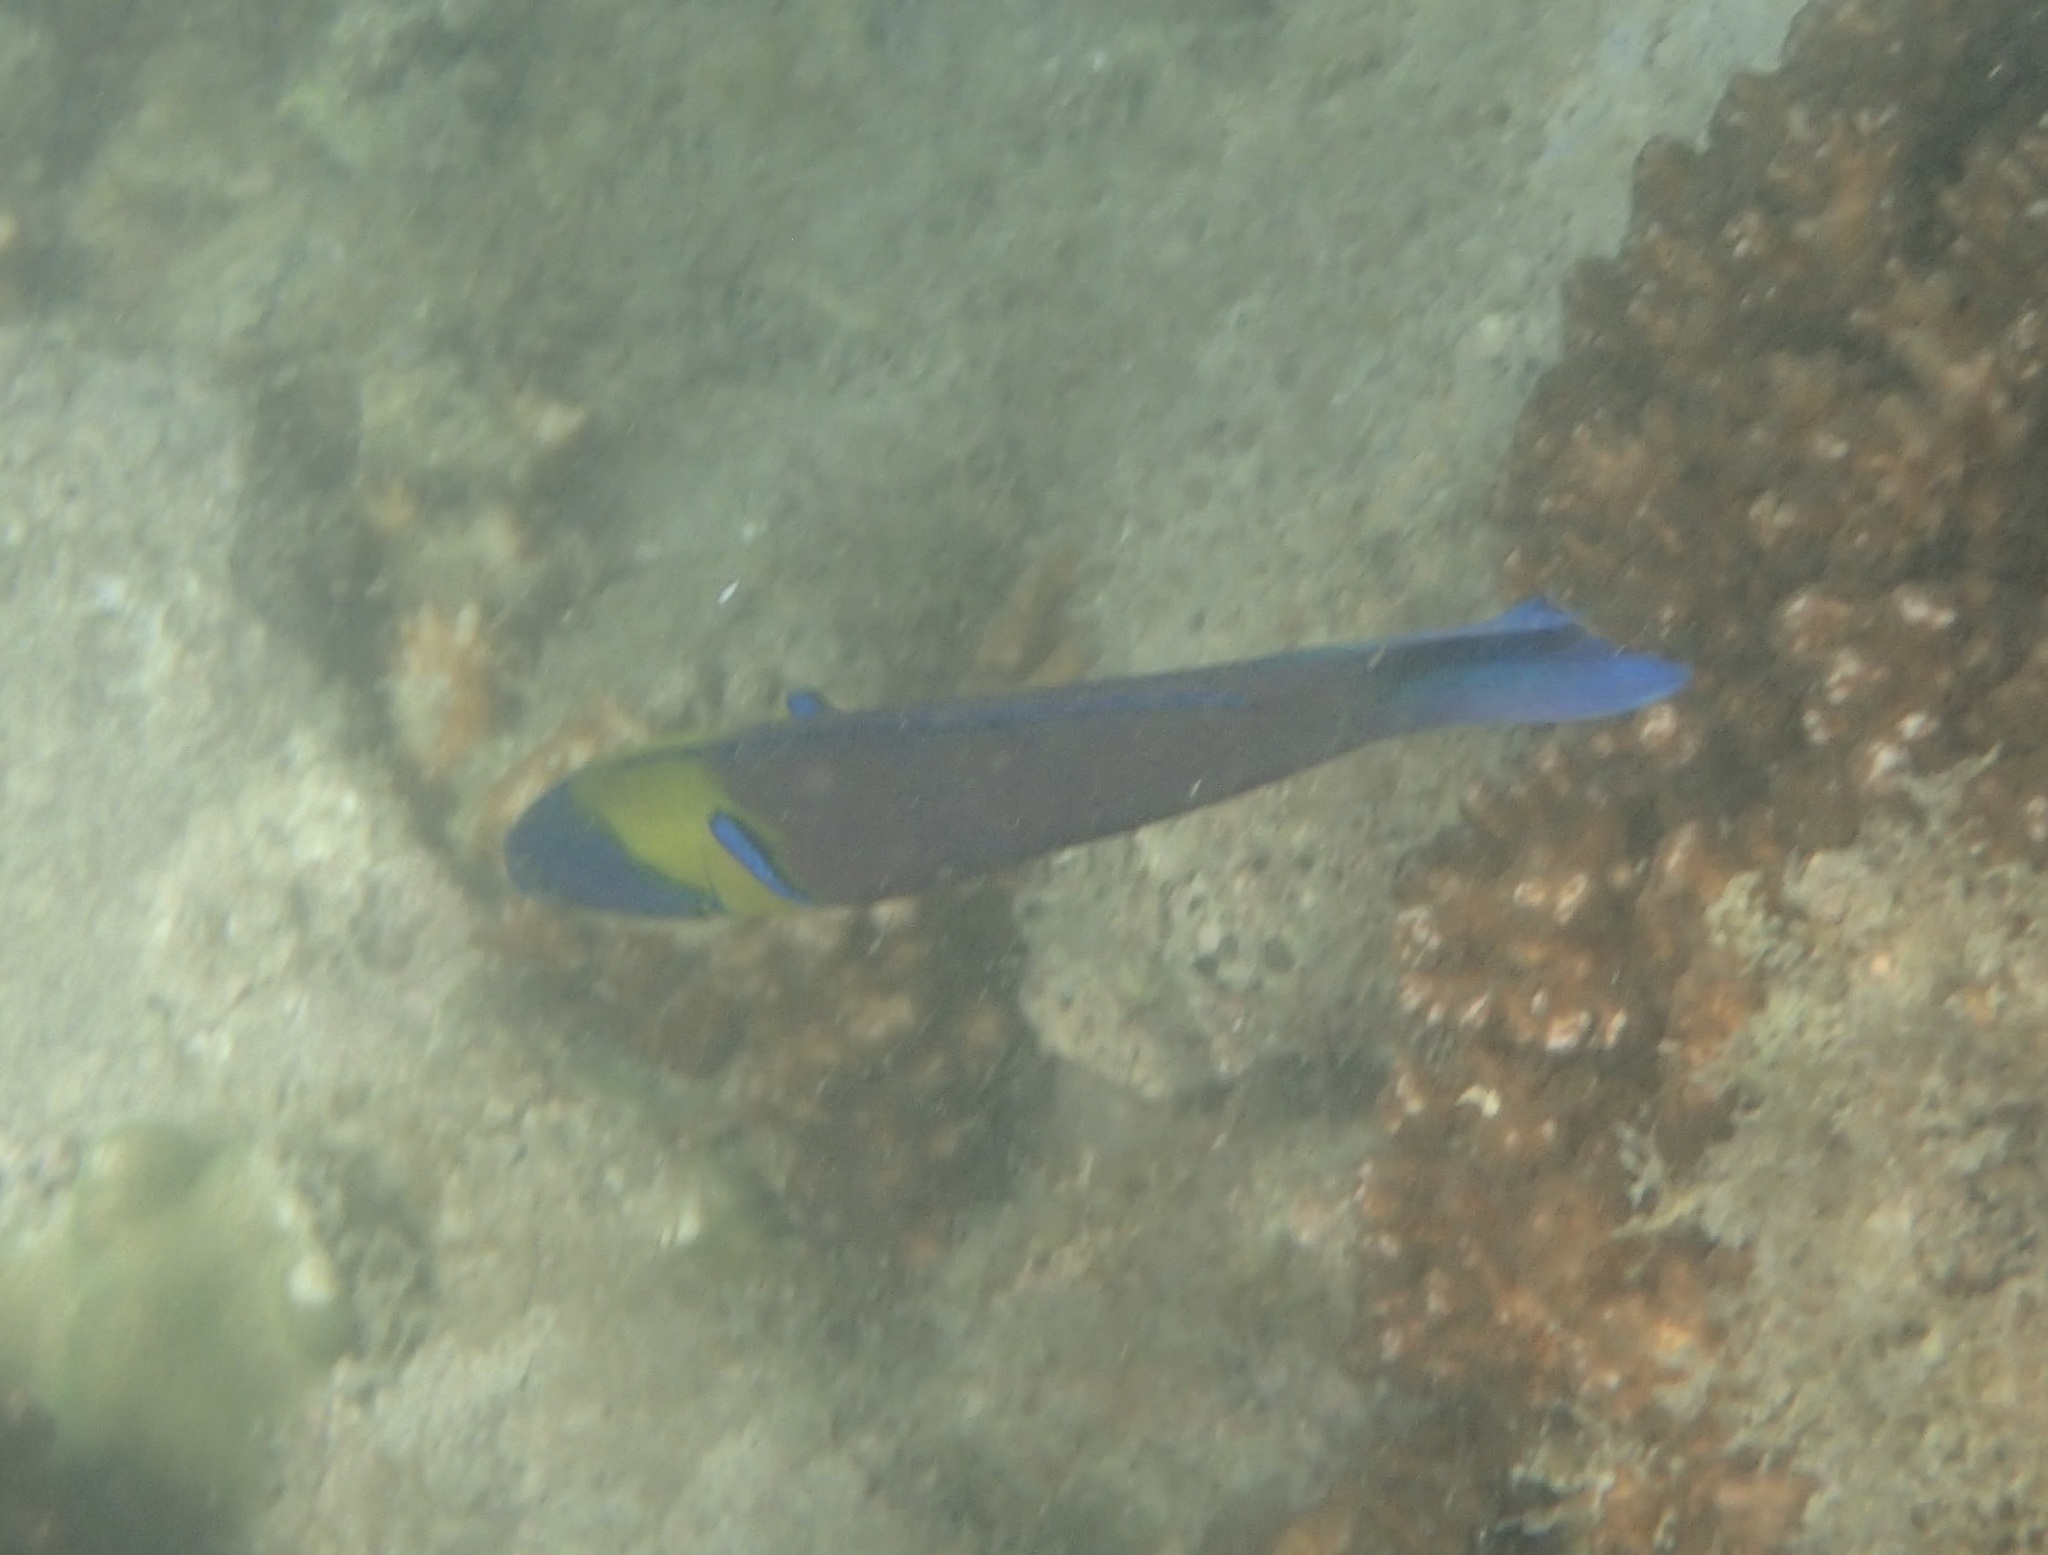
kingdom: Animalia
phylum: Chordata
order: Perciformes
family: Labridae
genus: Thalassoma
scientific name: Thalassoma lucasanum
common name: Cortez rainbow wrasse
